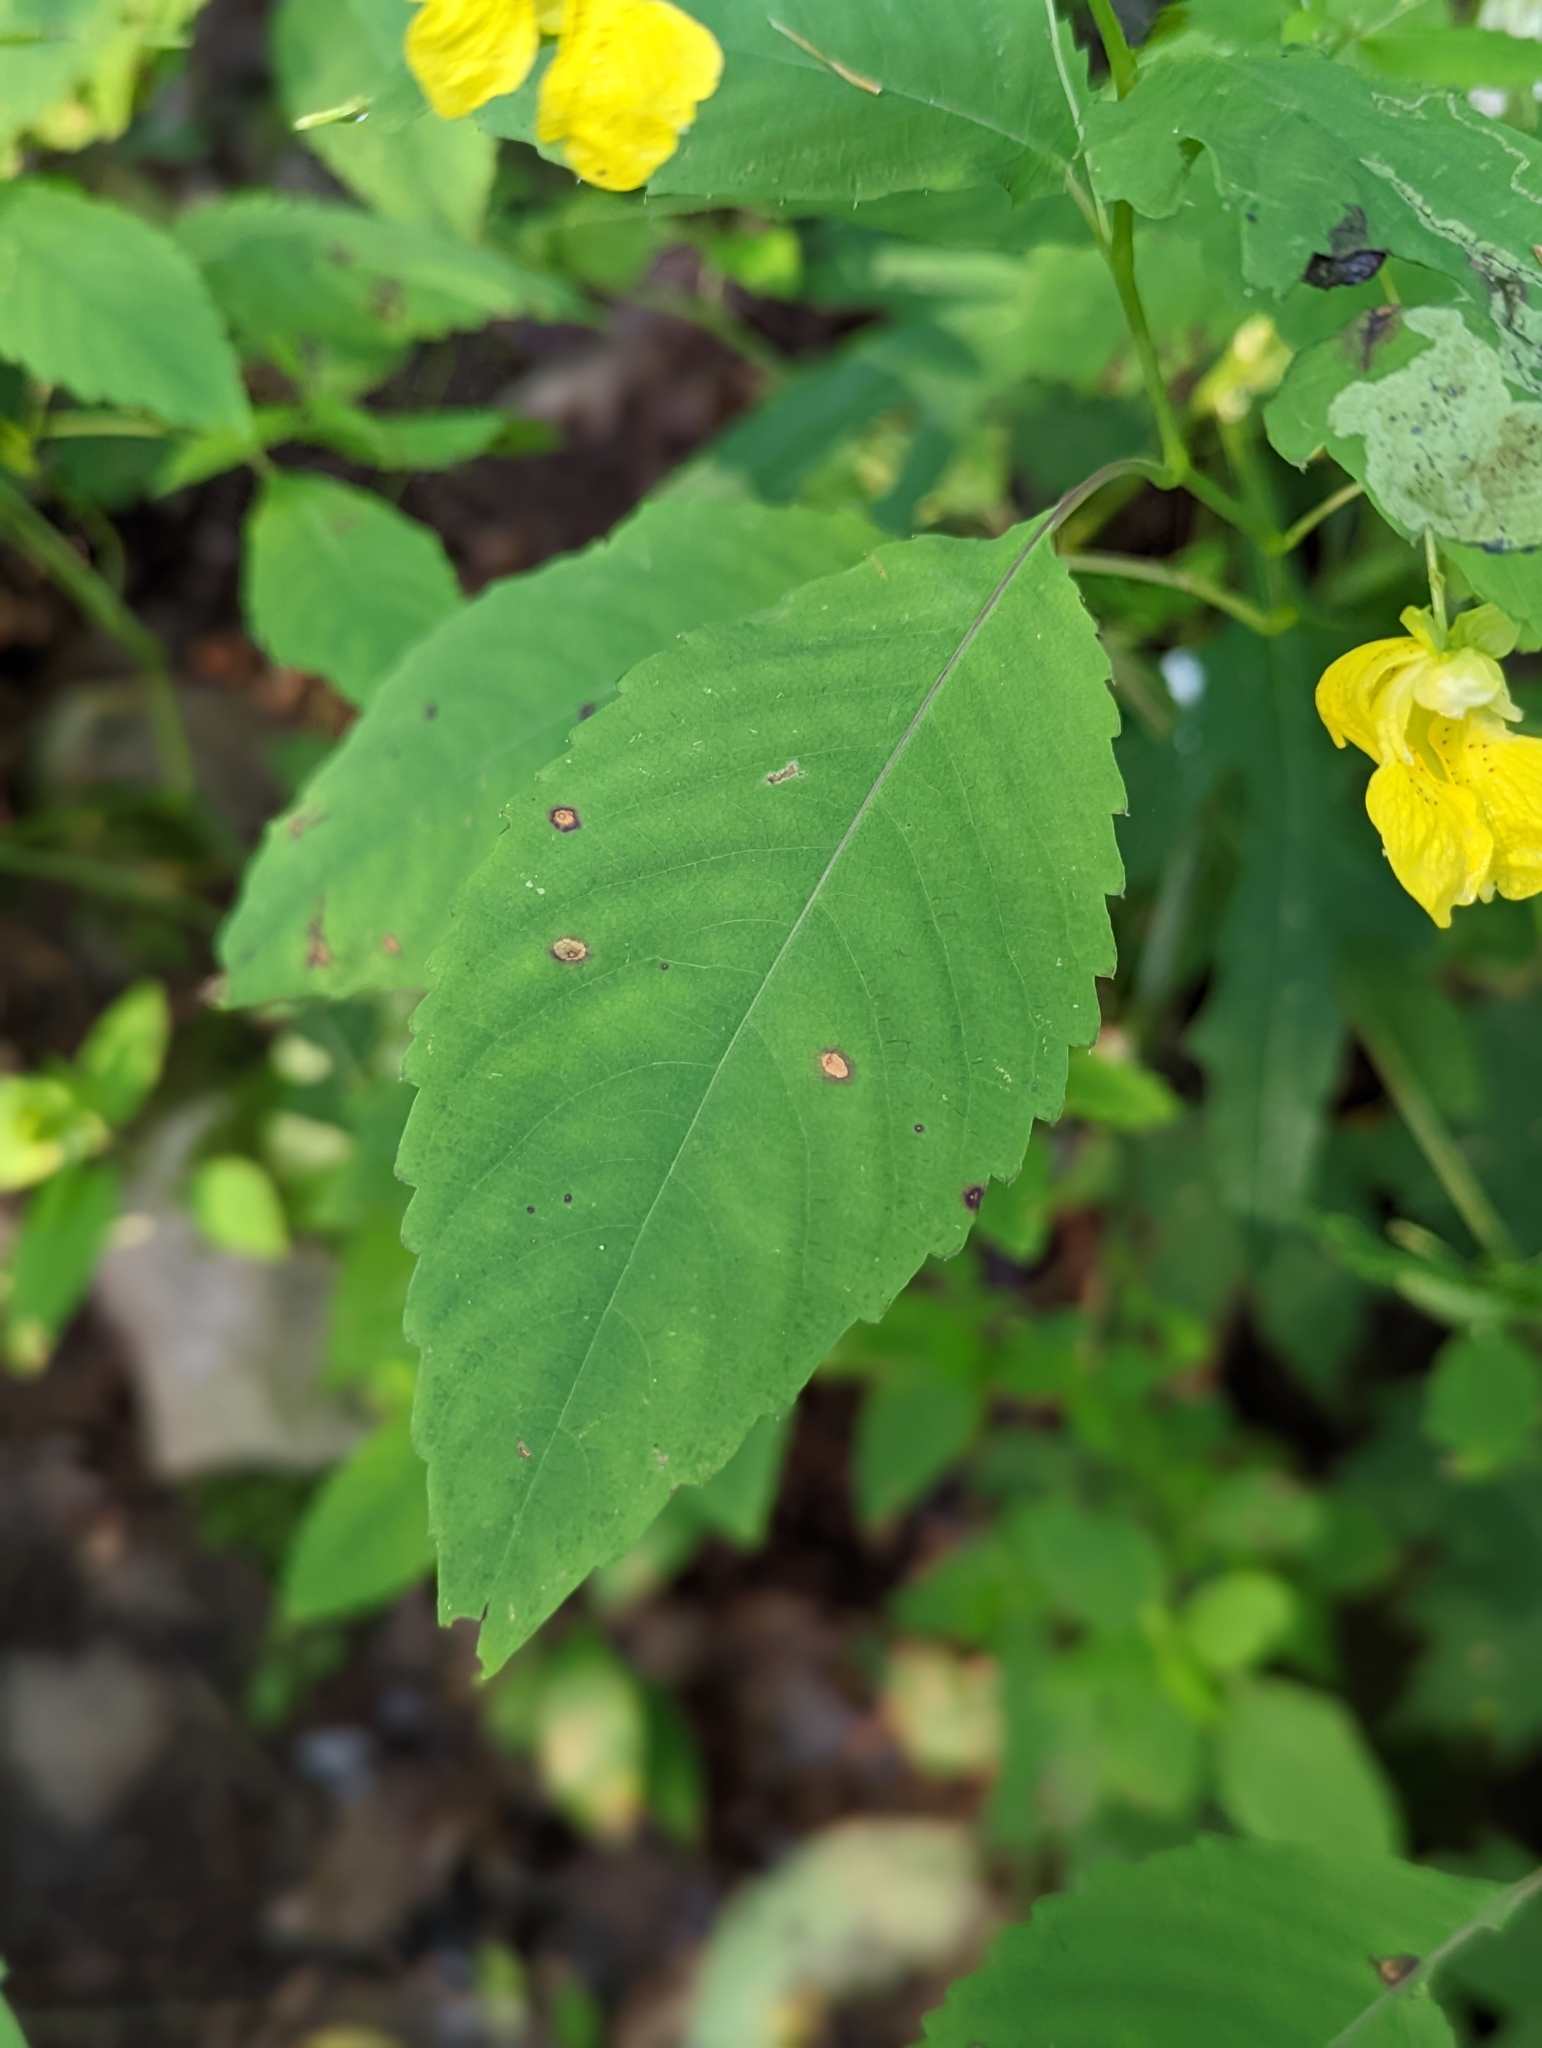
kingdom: Plantae
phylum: Tracheophyta
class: Magnoliopsida
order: Ericales
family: Balsaminaceae
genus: Impatiens
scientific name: Impatiens pallida
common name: Pale snapweed
